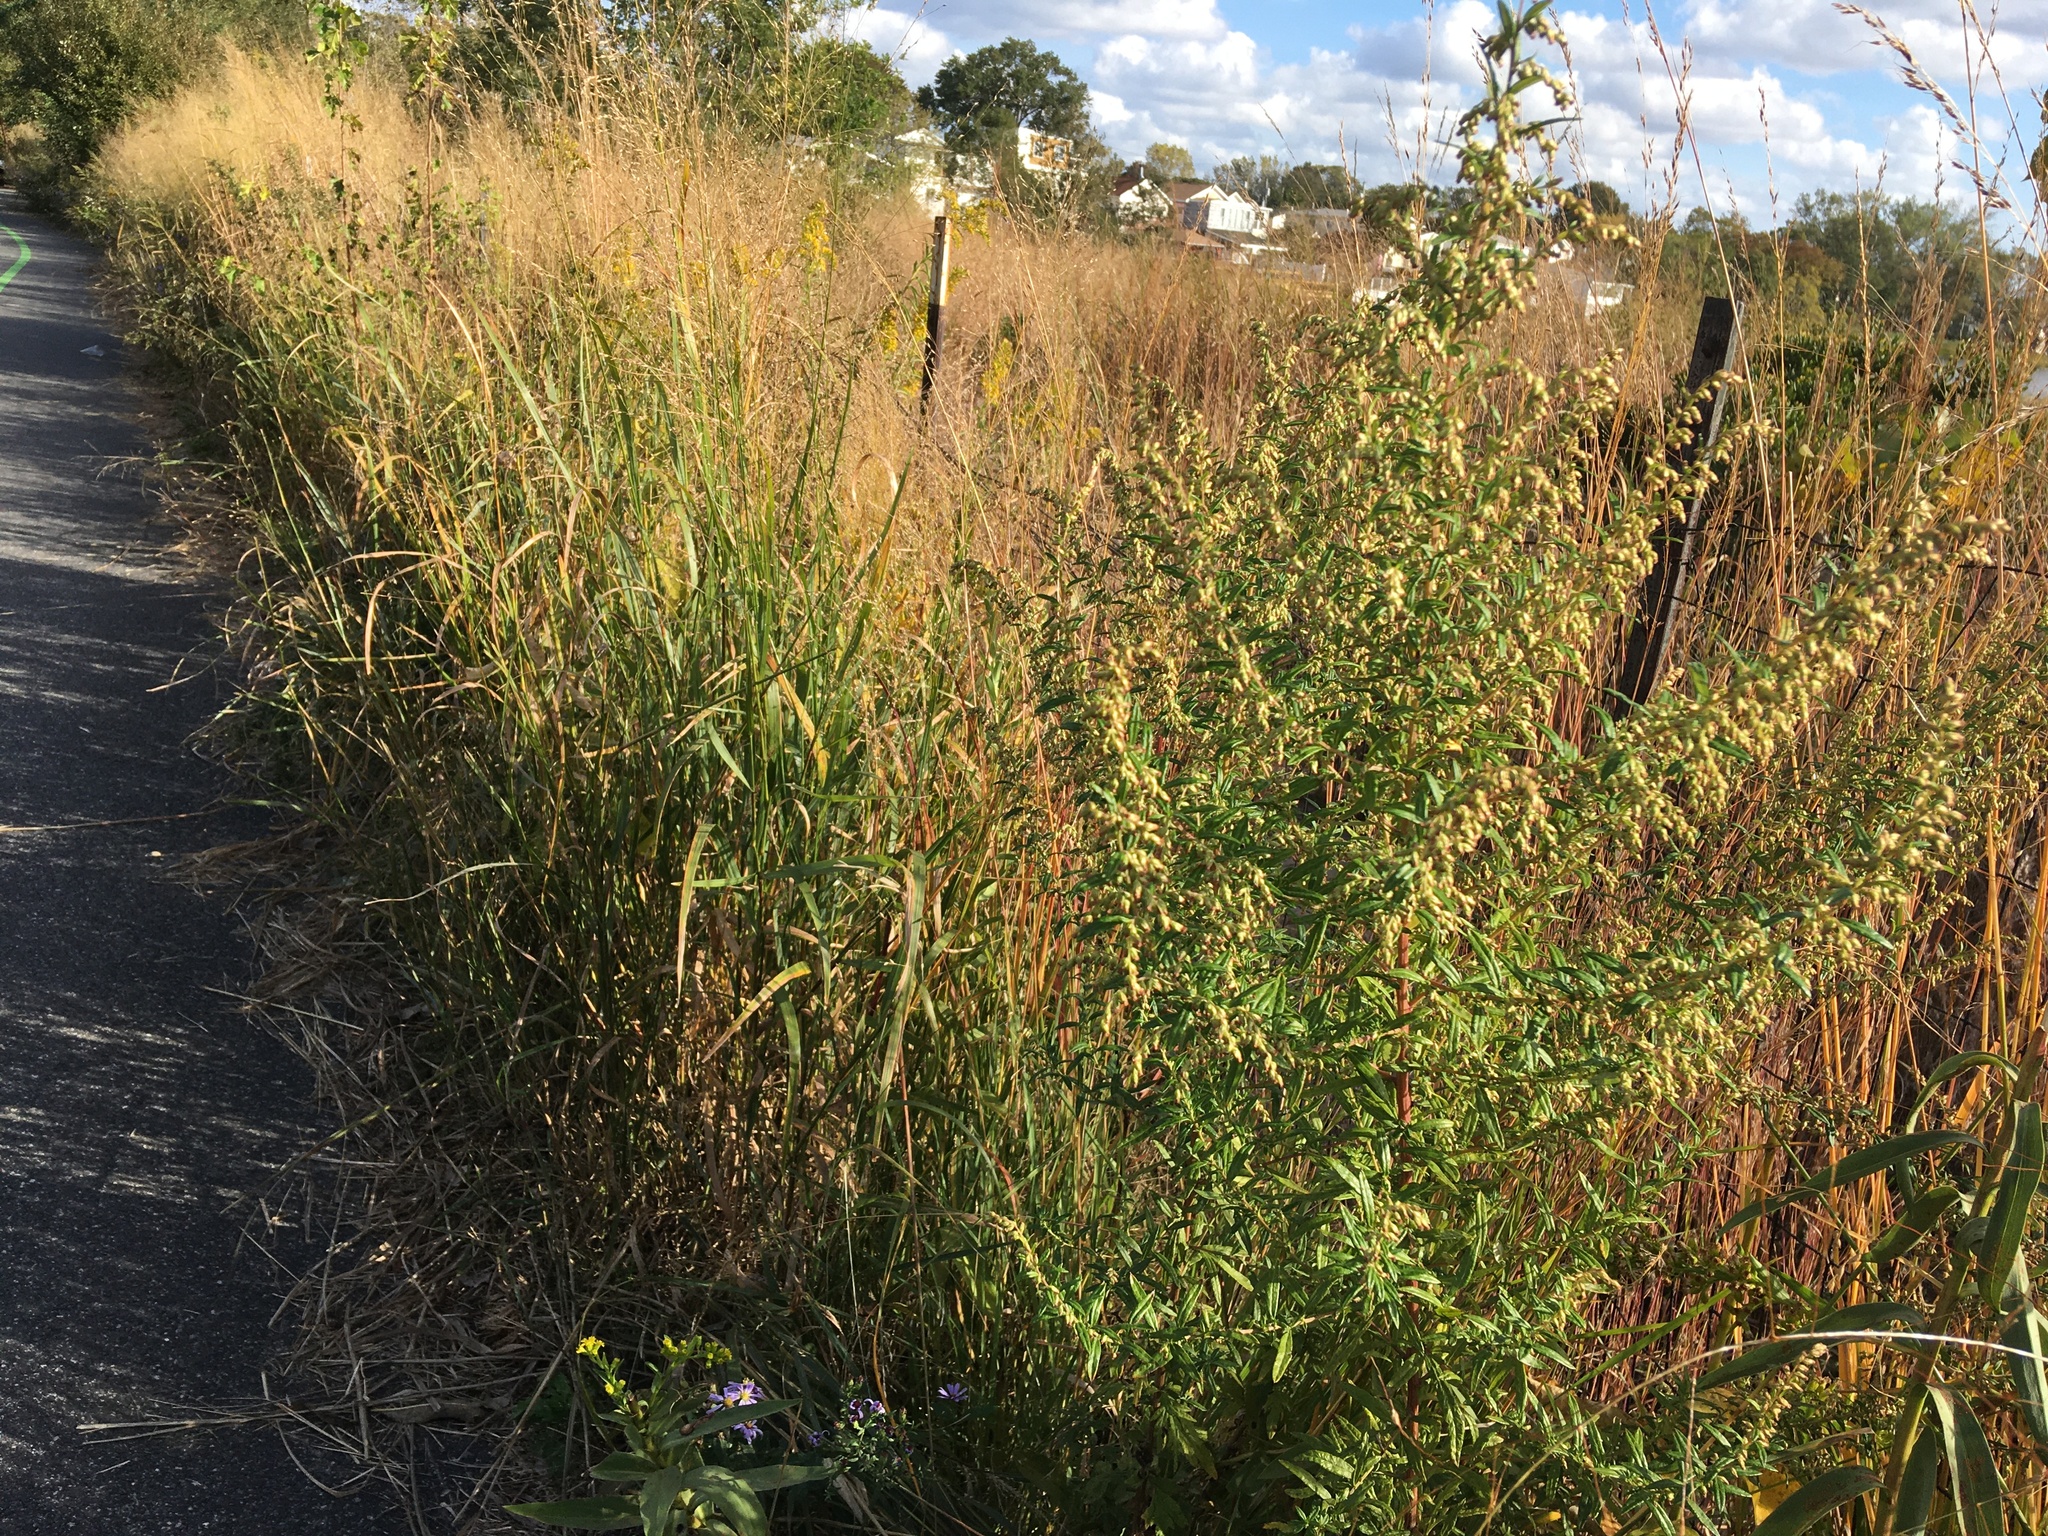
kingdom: Plantae
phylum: Tracheophyta
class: Magnoliopsida
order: Asterales
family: Asteraceae
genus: Artemisia
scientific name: Artemisia vulgaris
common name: Mugwort
